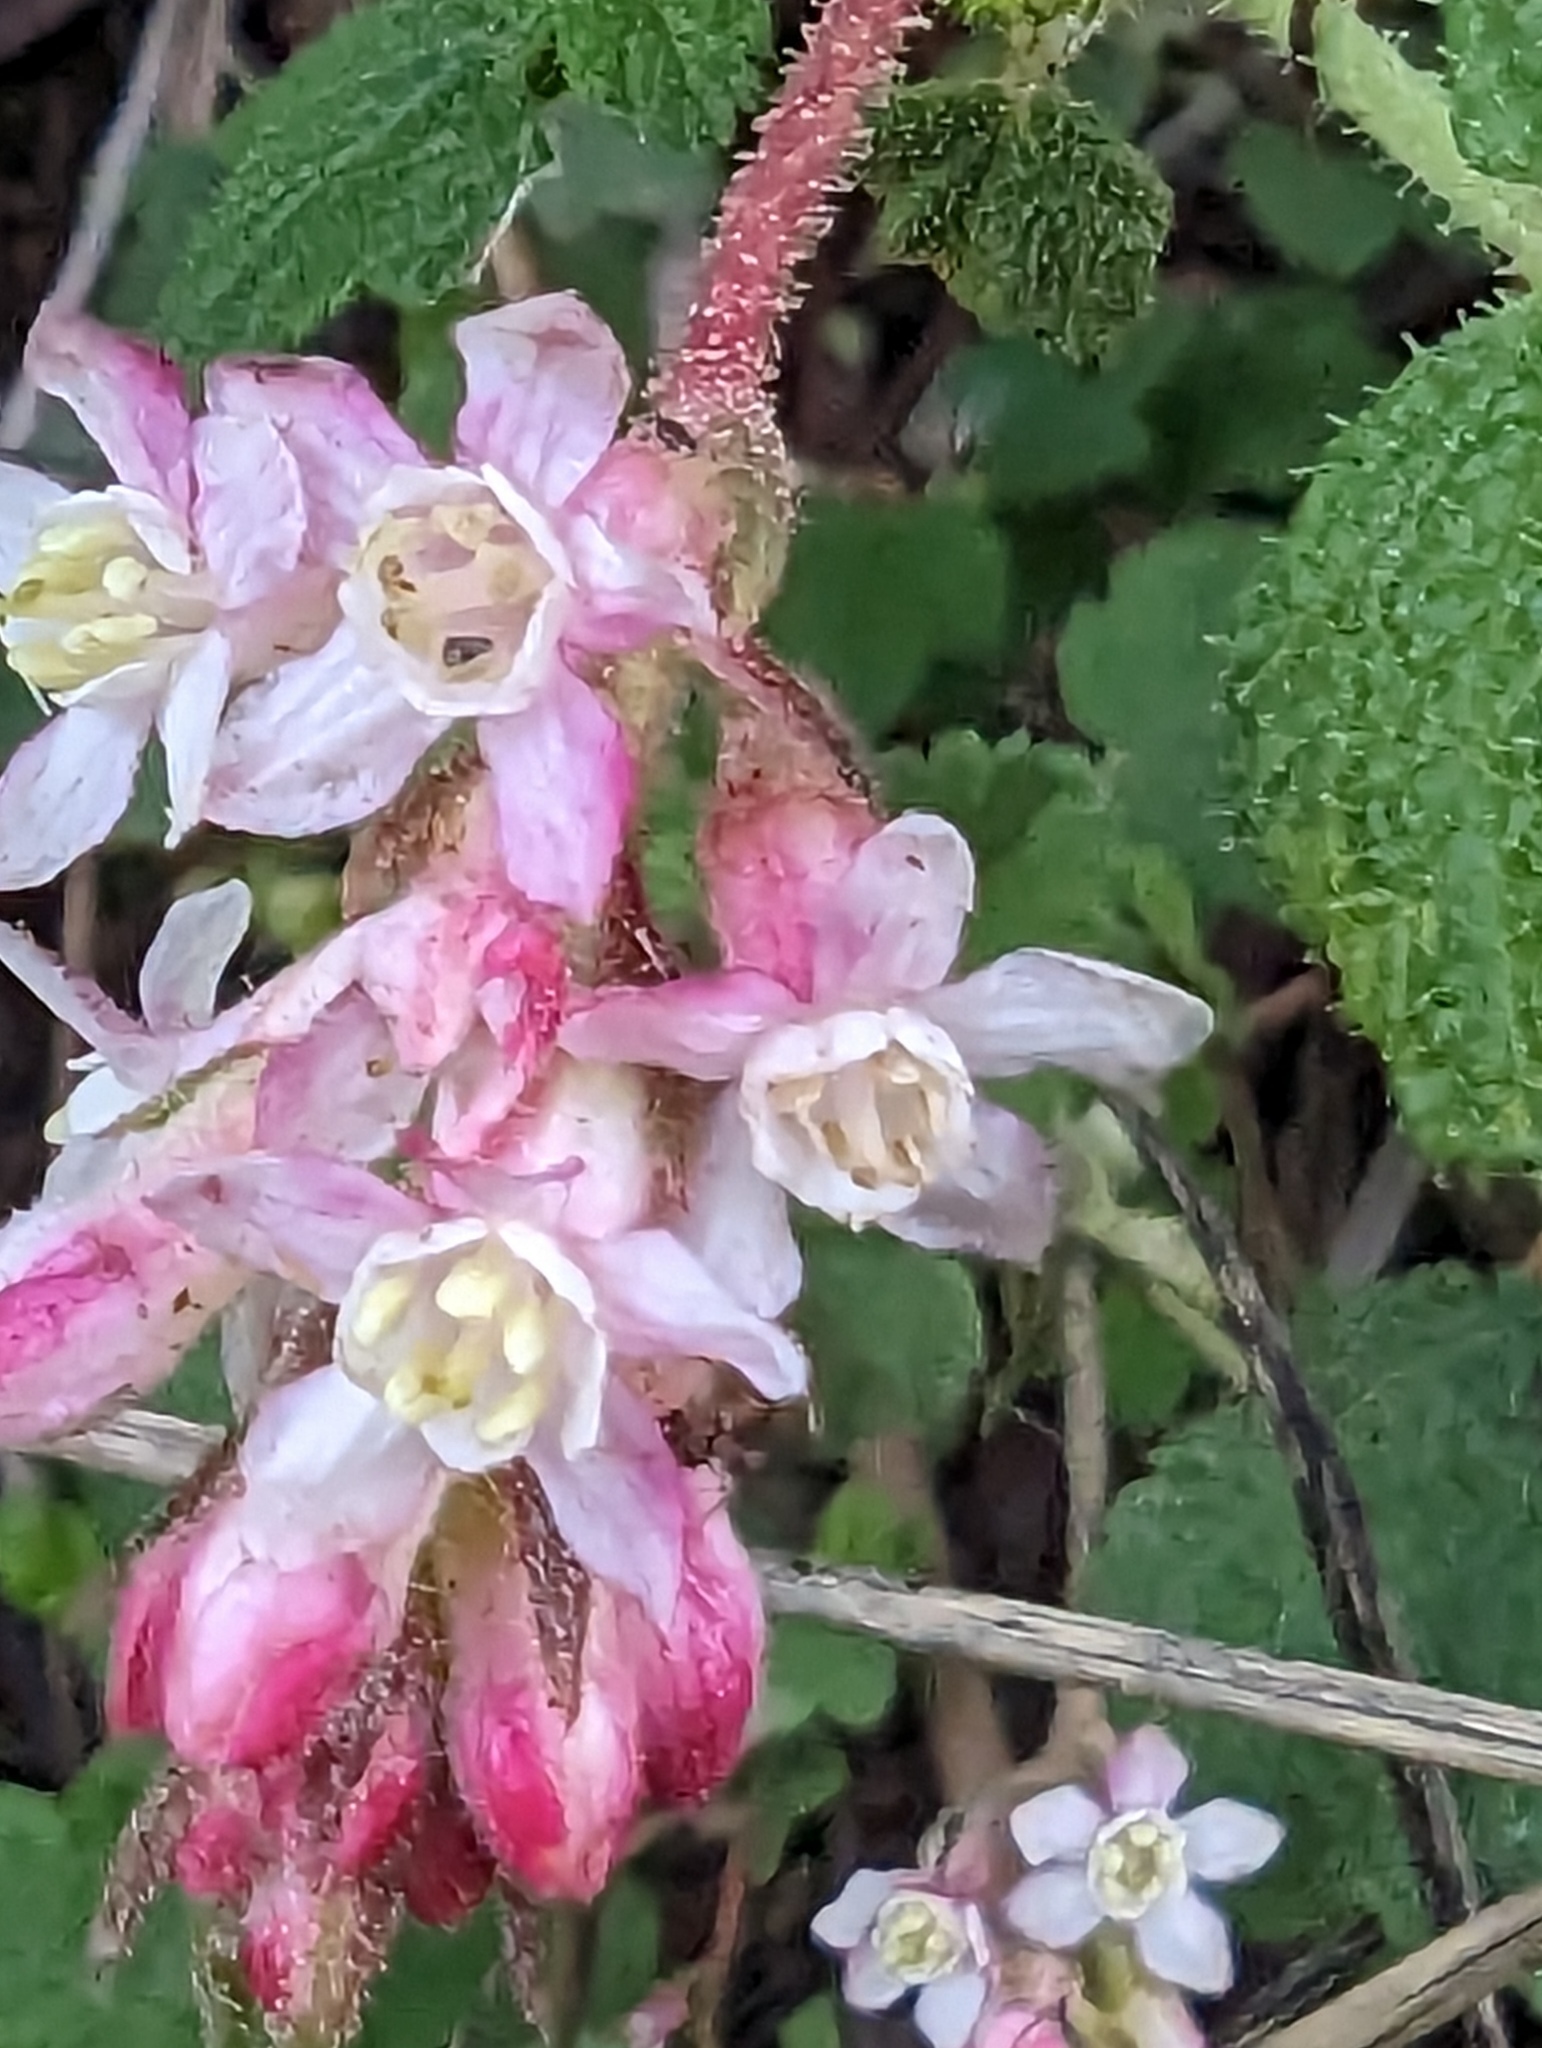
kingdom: Plantae
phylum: Tracheophyta
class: Magnoliopsida
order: Saxifragales
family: Grossulariaceae
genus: Ribes
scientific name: Ribes malvaceum
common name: Chaparral currant
